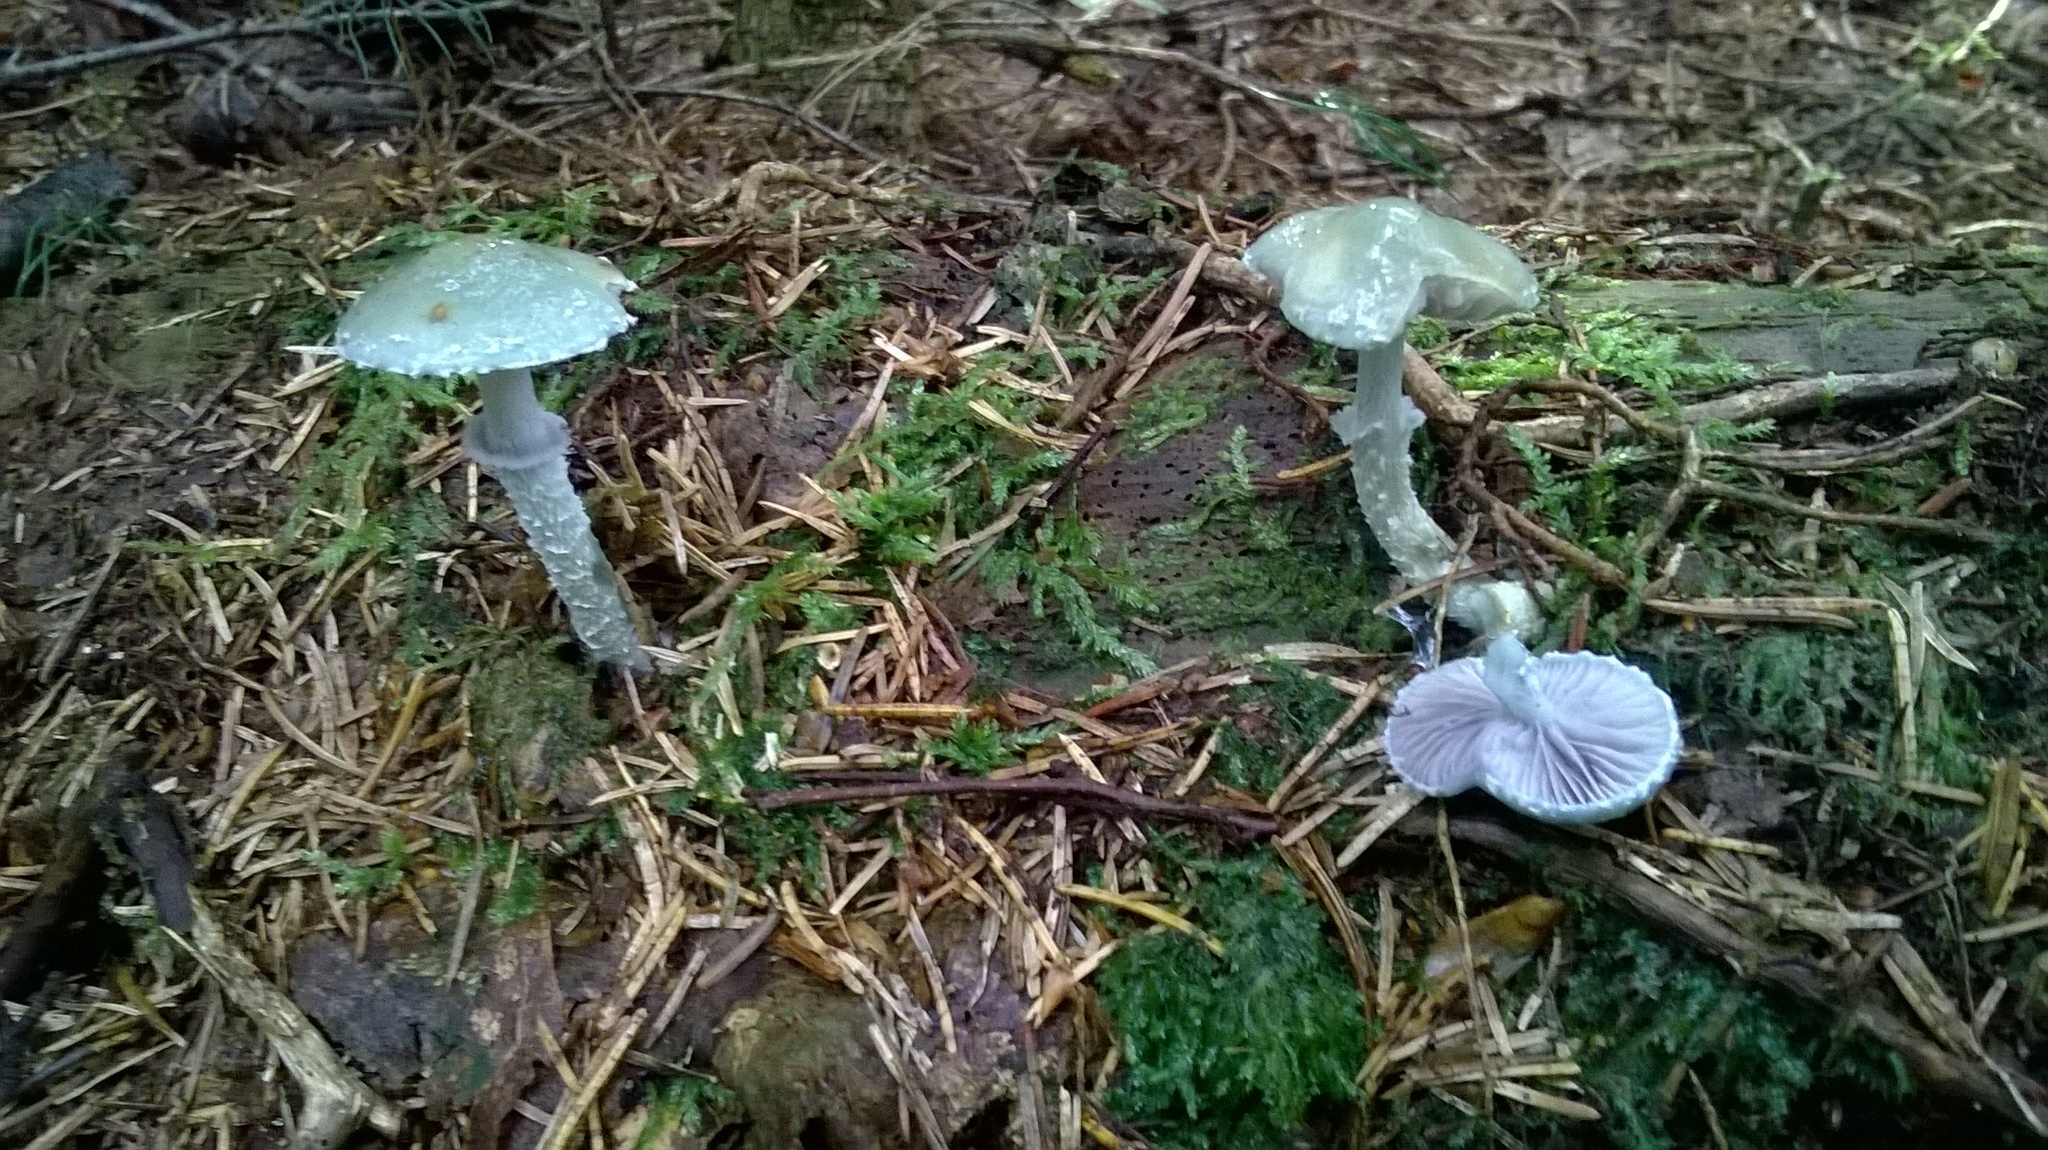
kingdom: Fungi
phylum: Basidiomycota
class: Agaricomycetes
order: Agaricales
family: Strophariaceae
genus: Stropharia
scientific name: Stropharia aeruginosa
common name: Verdigris roundhead
